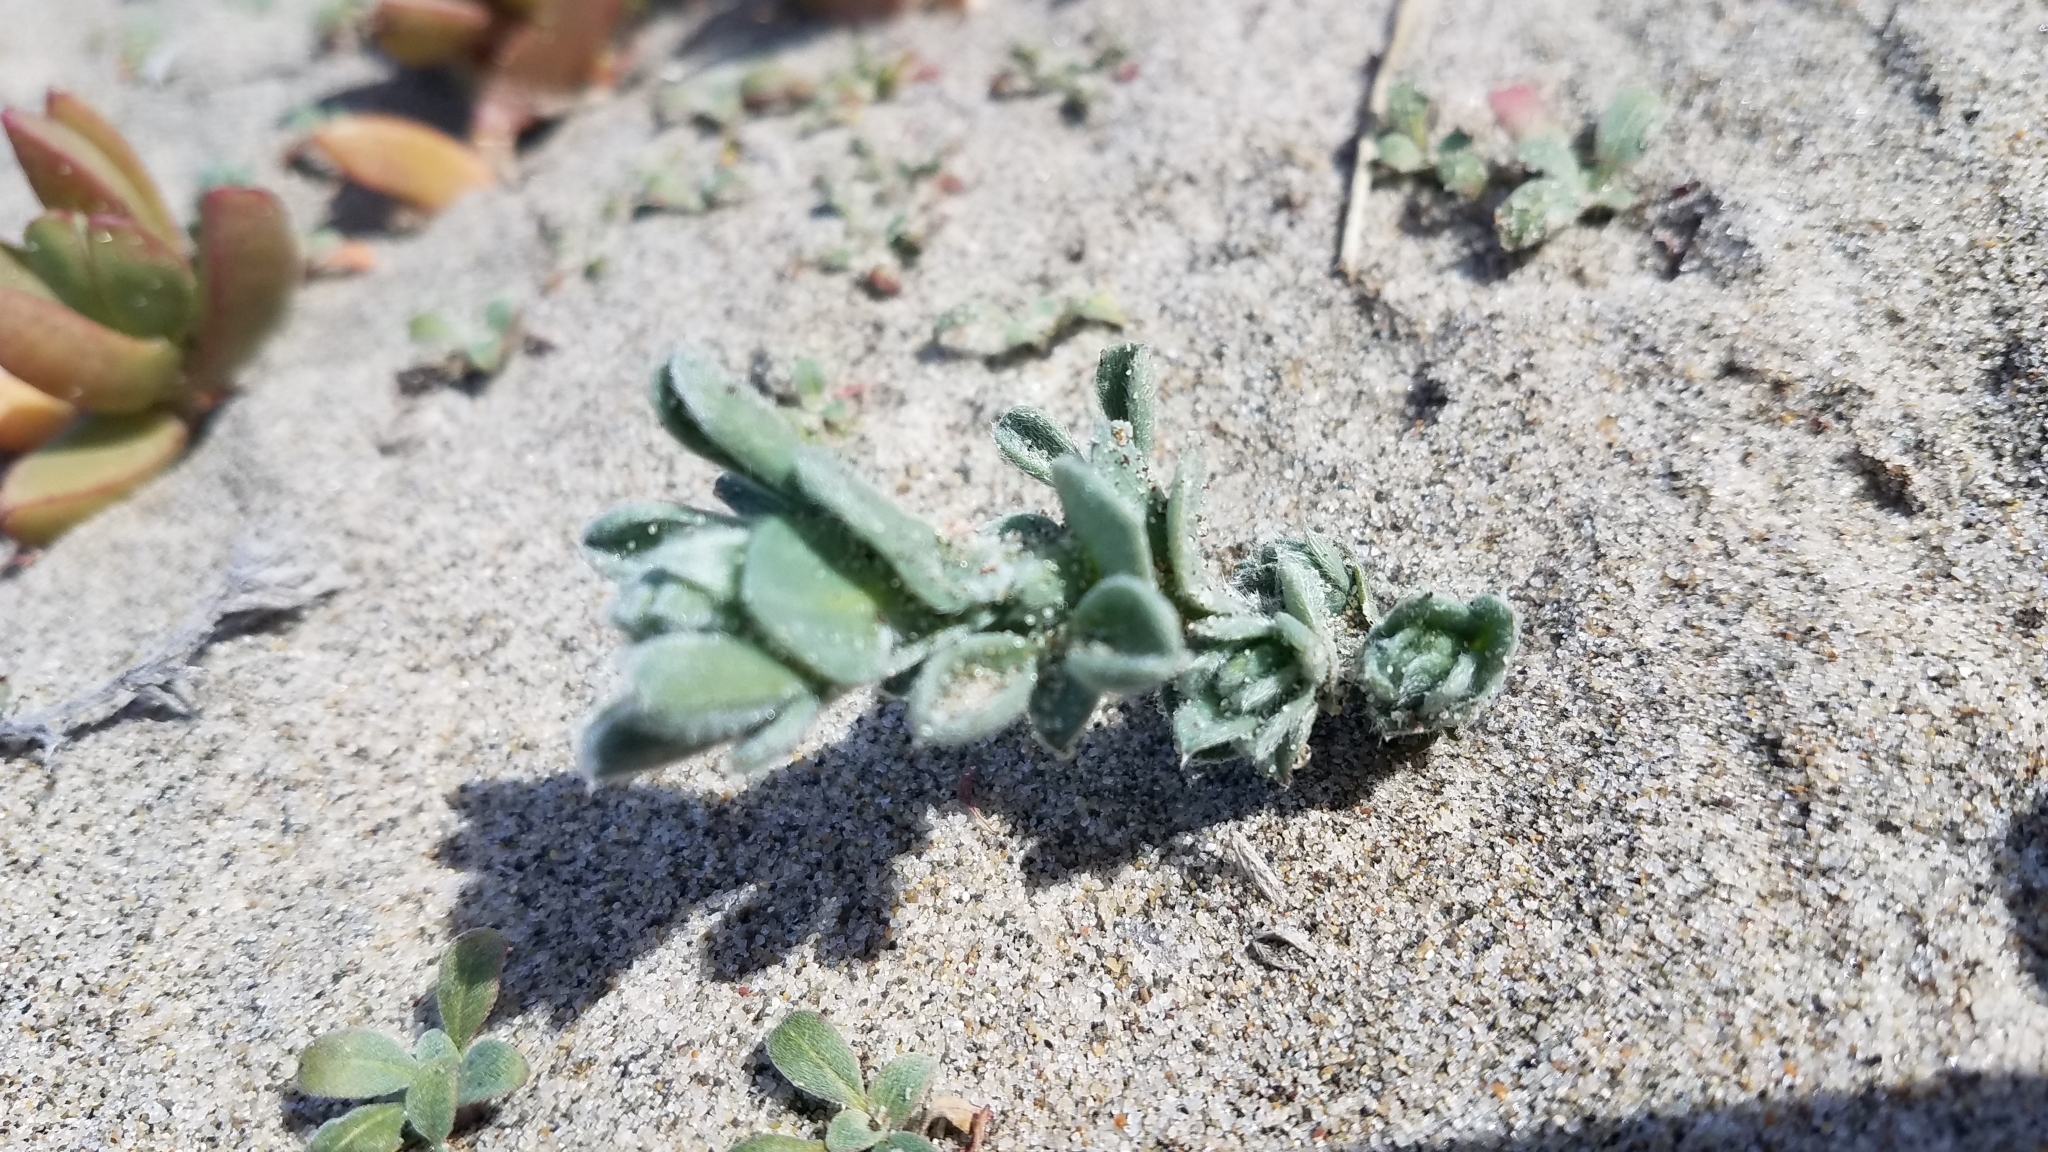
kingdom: Plantae
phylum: Tracheophyta
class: Magnoliopsida
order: Fabales
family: Fabaceae
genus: Lathyrus
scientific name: Lathyrus littoralis
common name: Dune sweet pea
